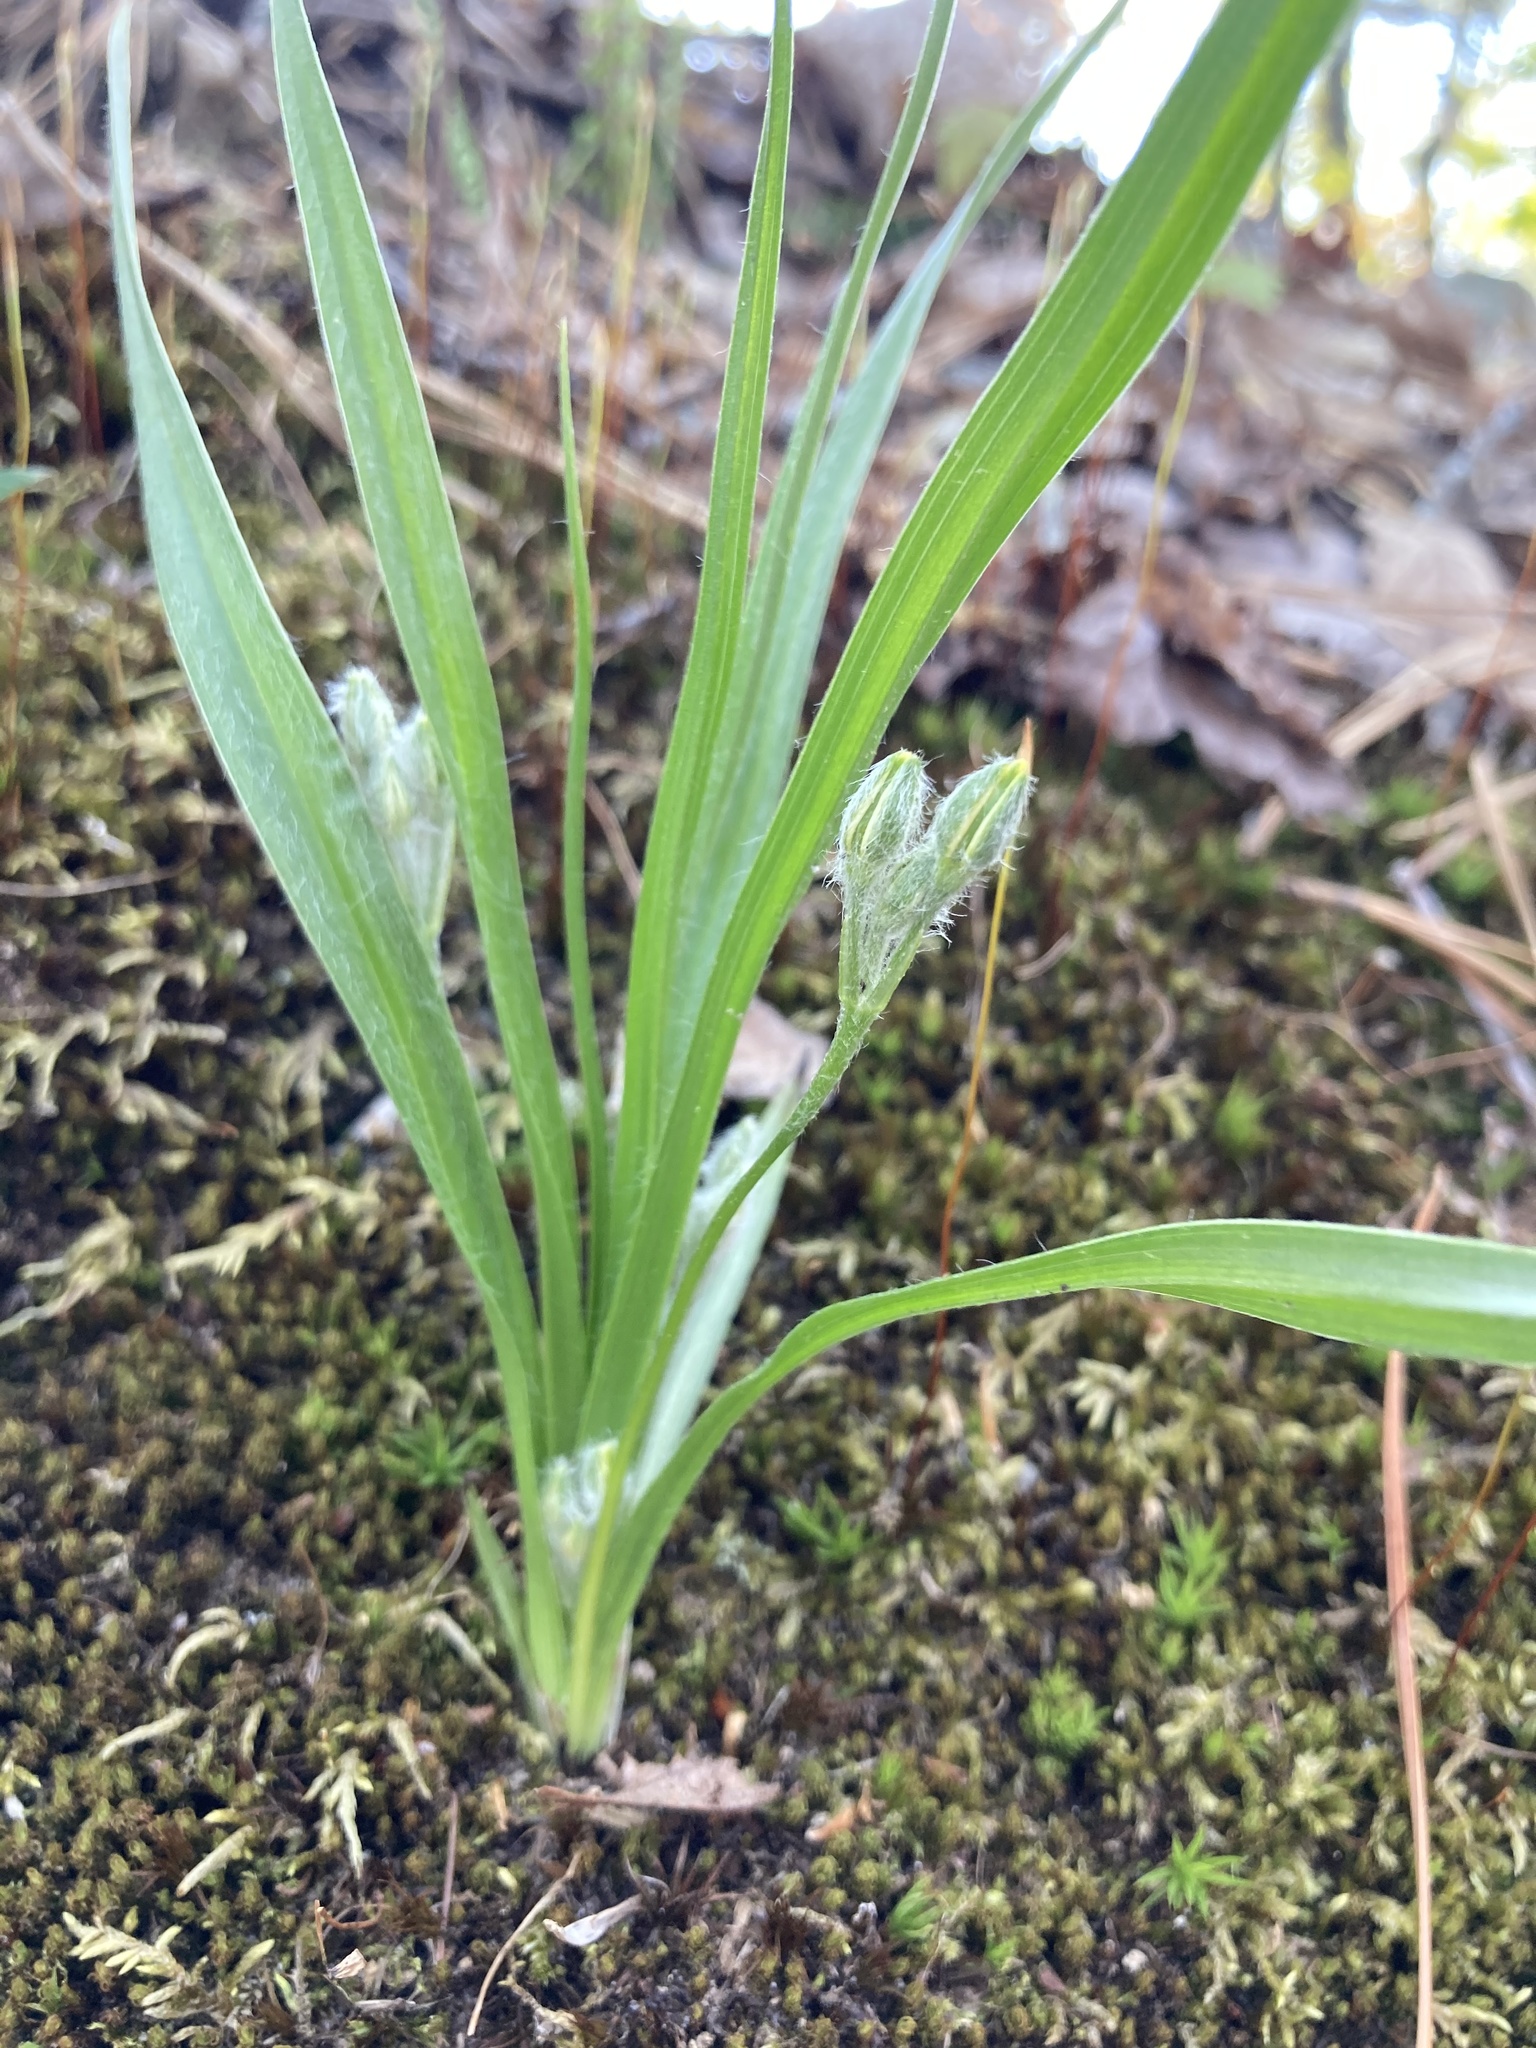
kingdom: Plantae
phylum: Tracheophyta
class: Liliopsida
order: Asparagales
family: Hypoxidaceae
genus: Hypoxis
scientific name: Hypoxis hirsuta
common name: Common goldstar
